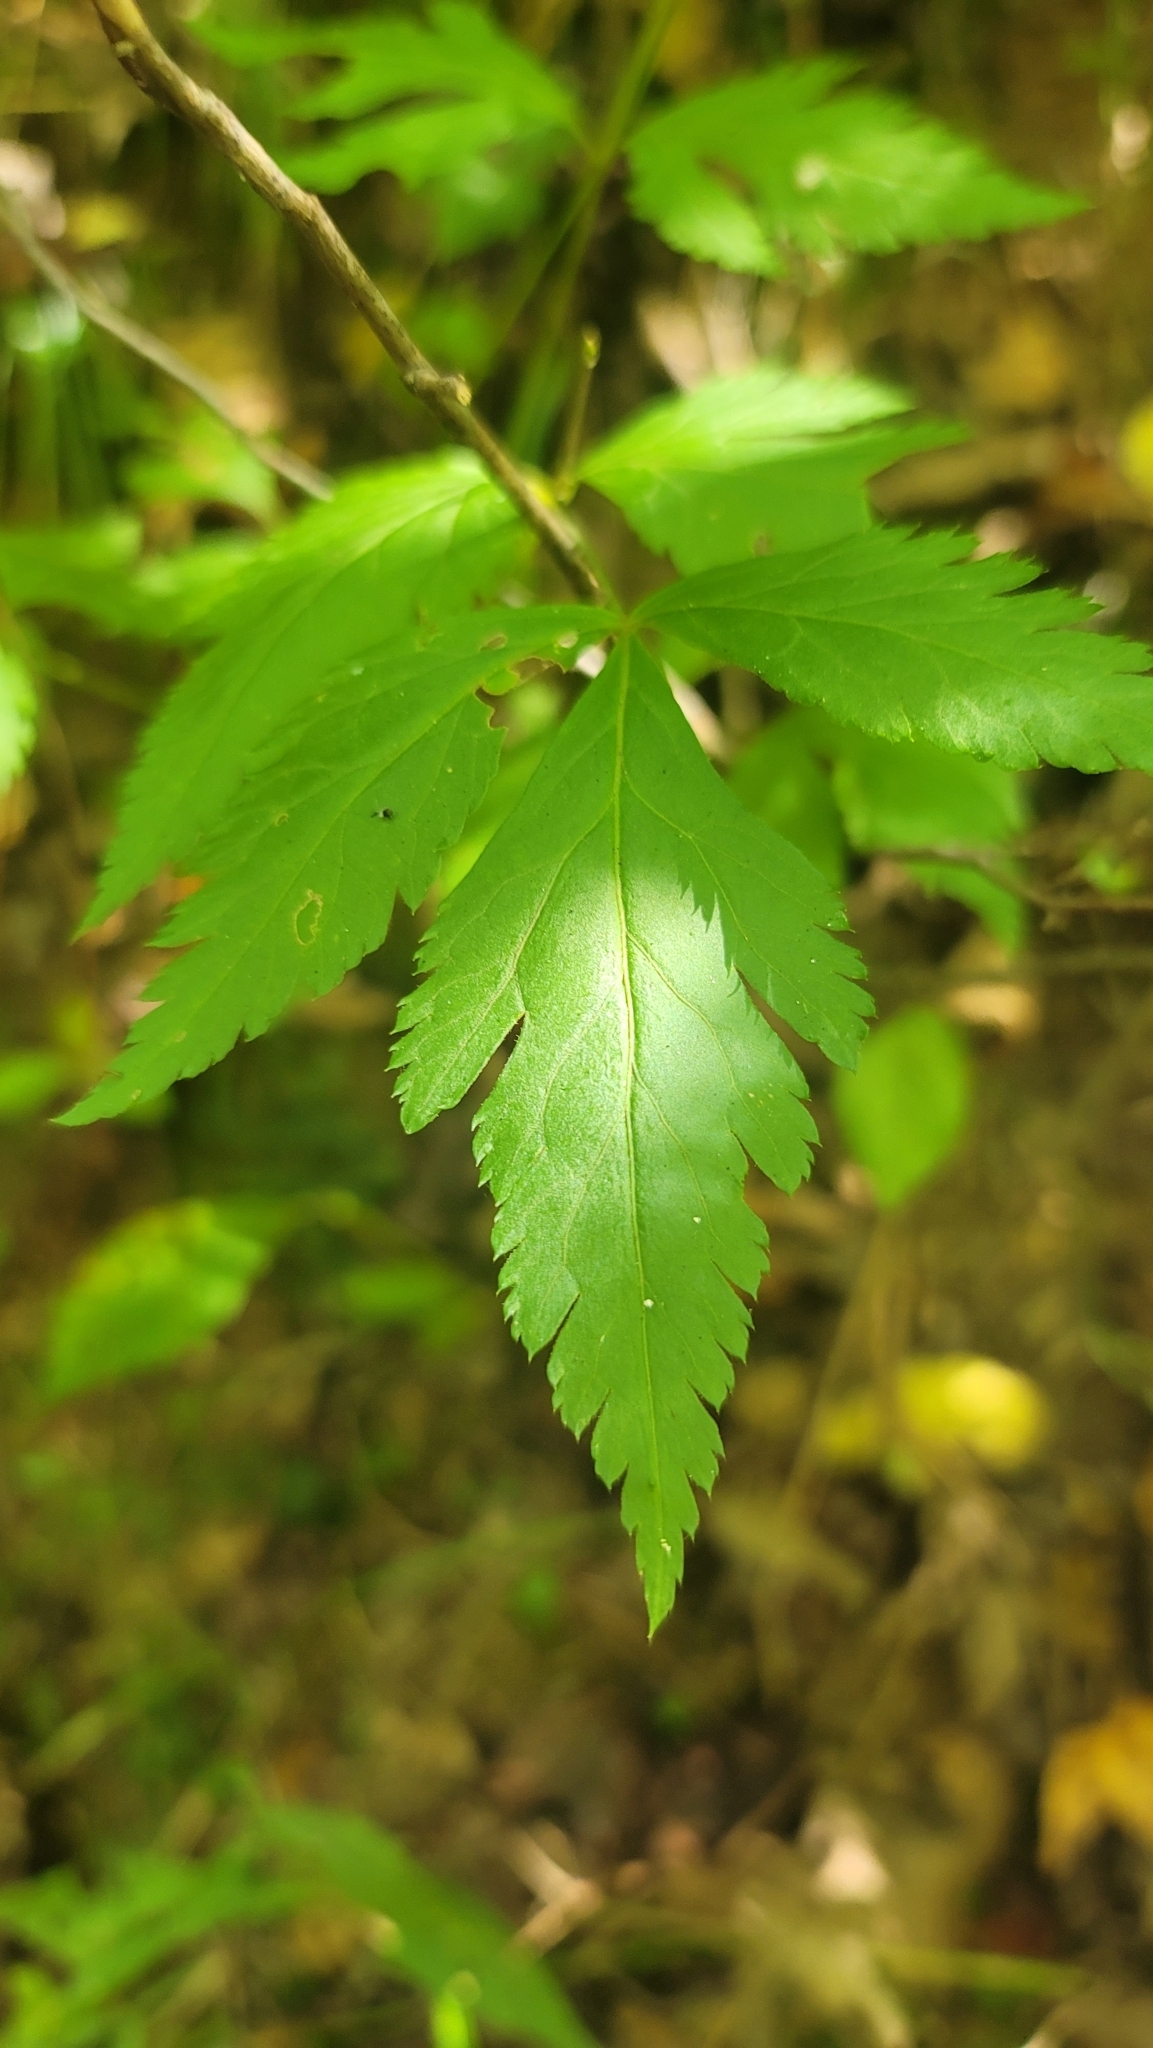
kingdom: Plantae
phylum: Tracheophyta
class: Magnoliopsida
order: Ranunculales
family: Ranunculaceae
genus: Xanthorhiza
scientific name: Xanthorhiza simplicissima
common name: Yellowroot
